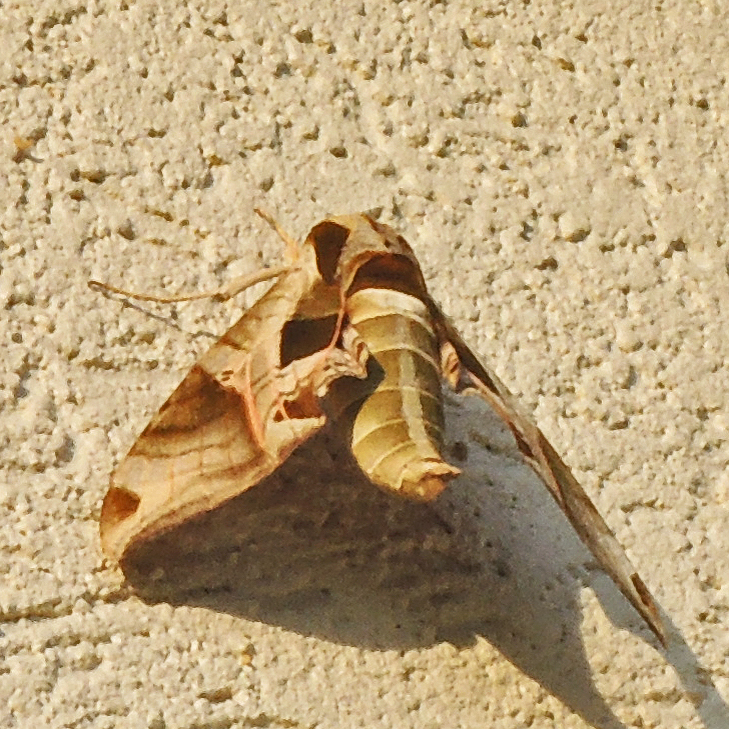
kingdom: Animalia
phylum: Arthropoda
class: Insecta
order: Lepidoptera
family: Sphingidae
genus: Eumorpha
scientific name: Eumorpha pandorus
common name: Pandora sphinx
